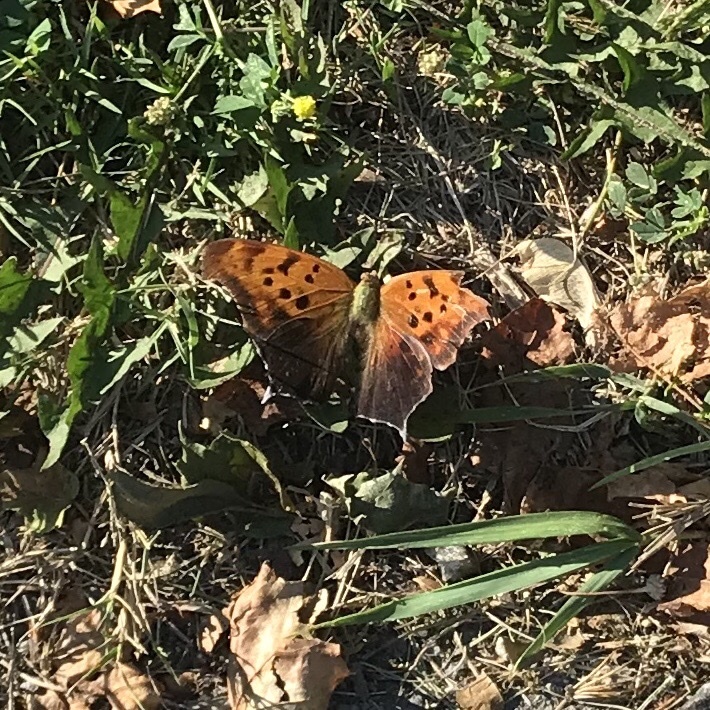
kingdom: Animalia
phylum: Arthropoda
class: Insecta
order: Lepidoptera
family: Nymphalidae
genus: Polygonia
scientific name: Polygonia interrogationis
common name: Question mark
